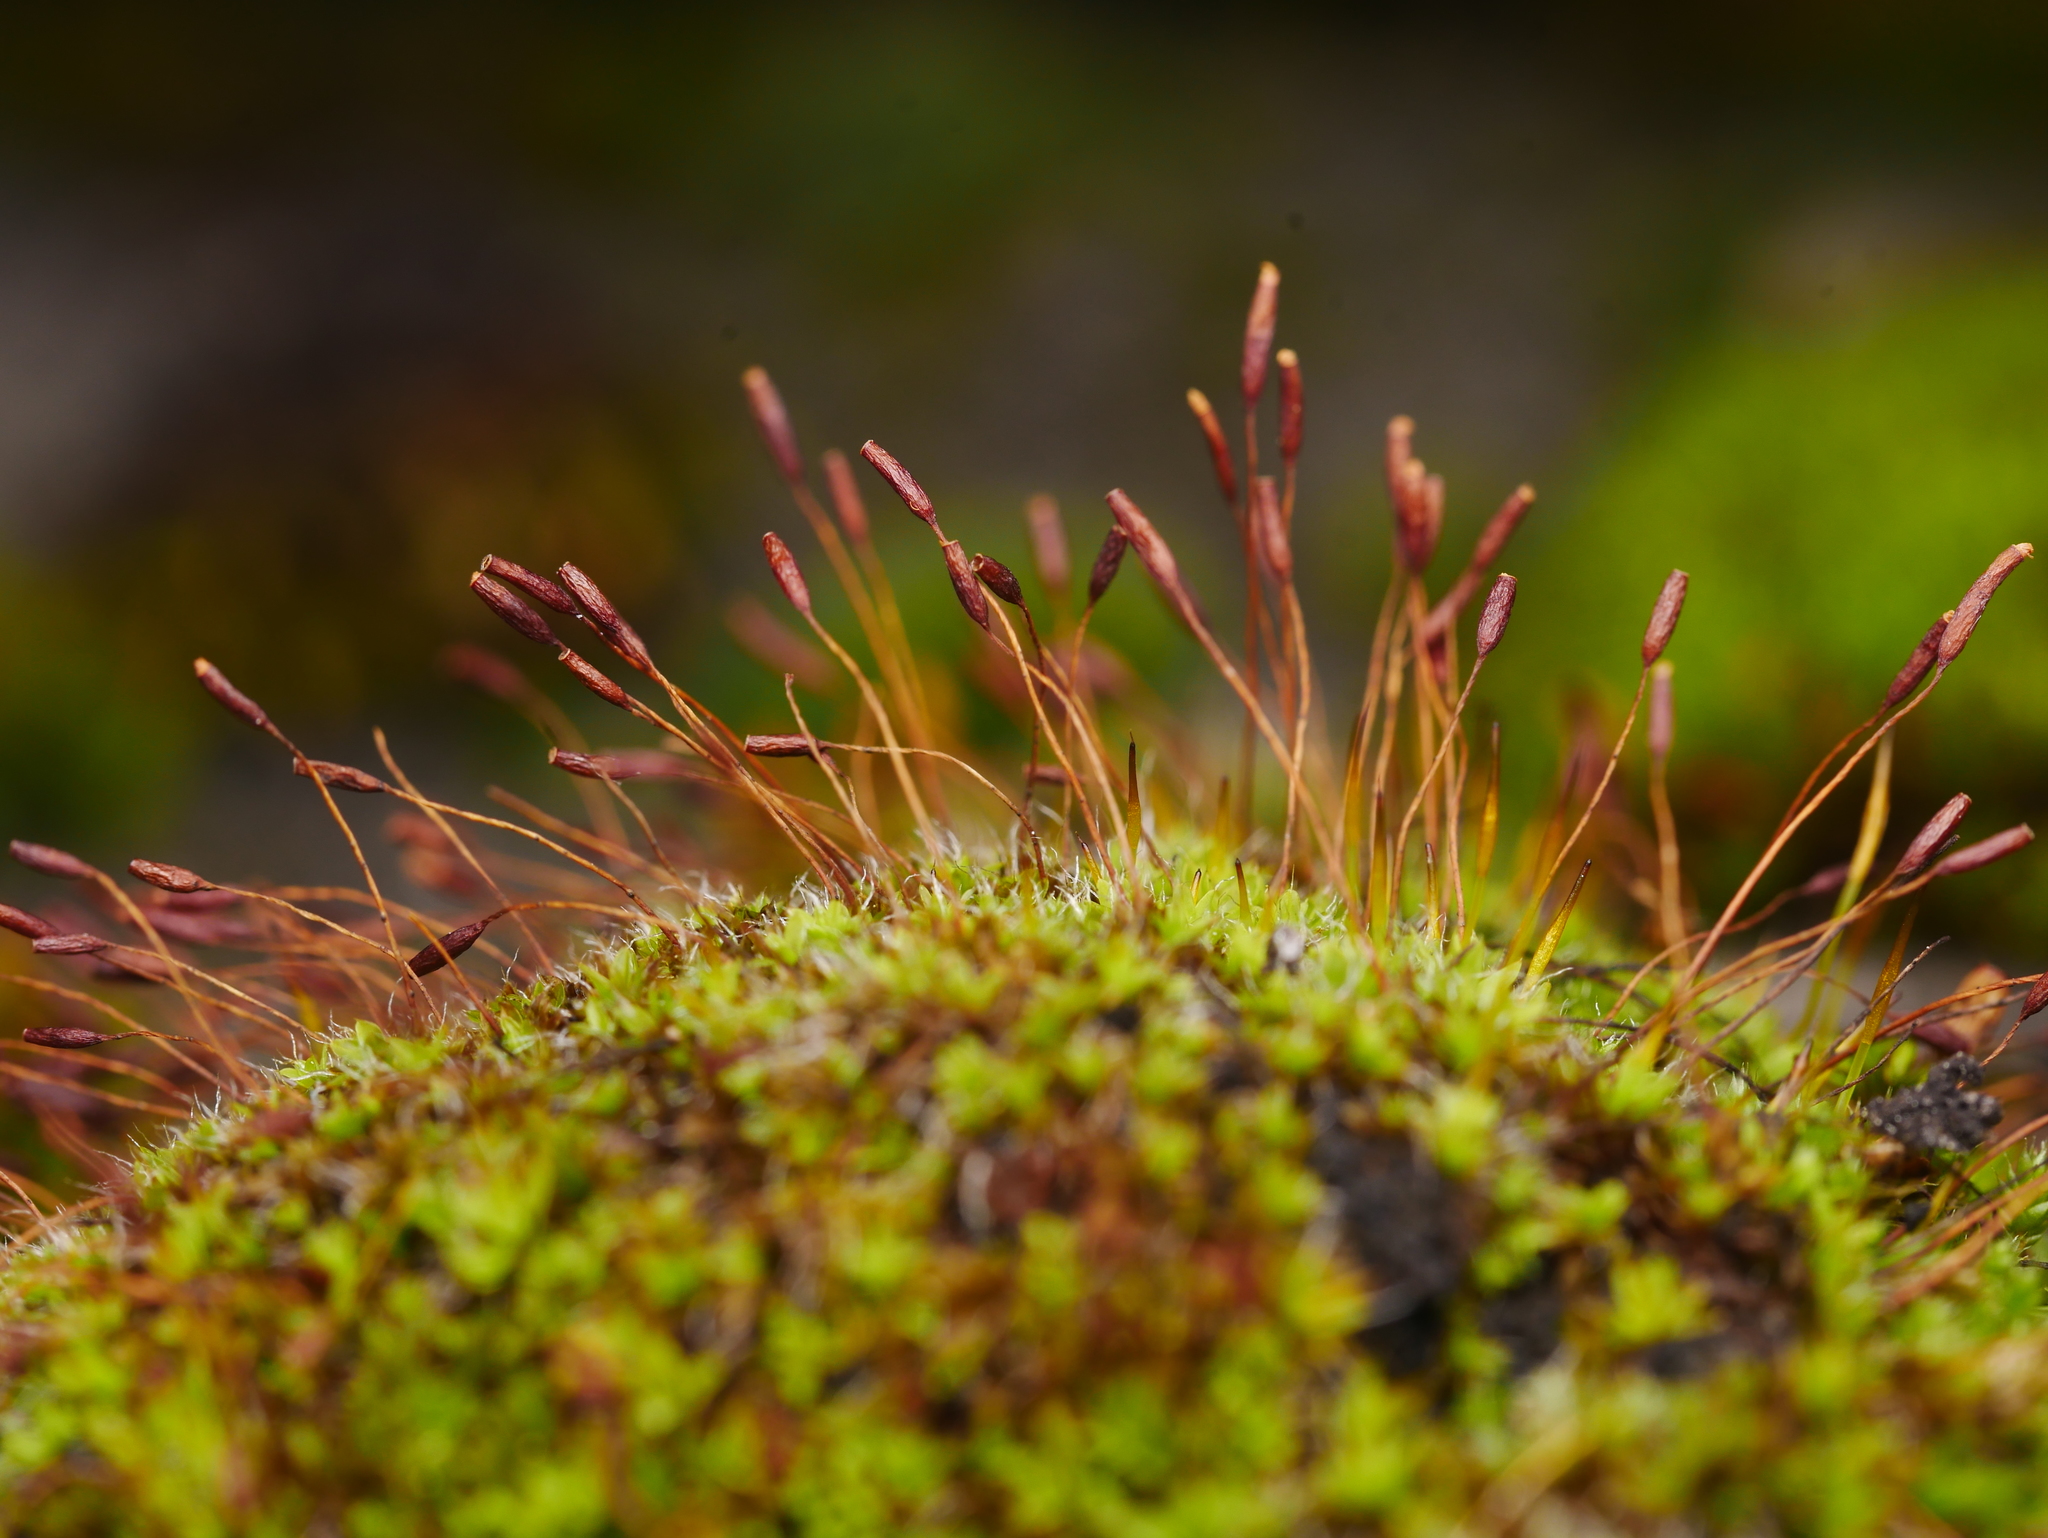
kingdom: Plantae
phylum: Bryophyta
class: Bryopsida
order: Pottiales
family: Pottiaceae
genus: Tortula
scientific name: Tortula muralis
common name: Wall screw-moss
